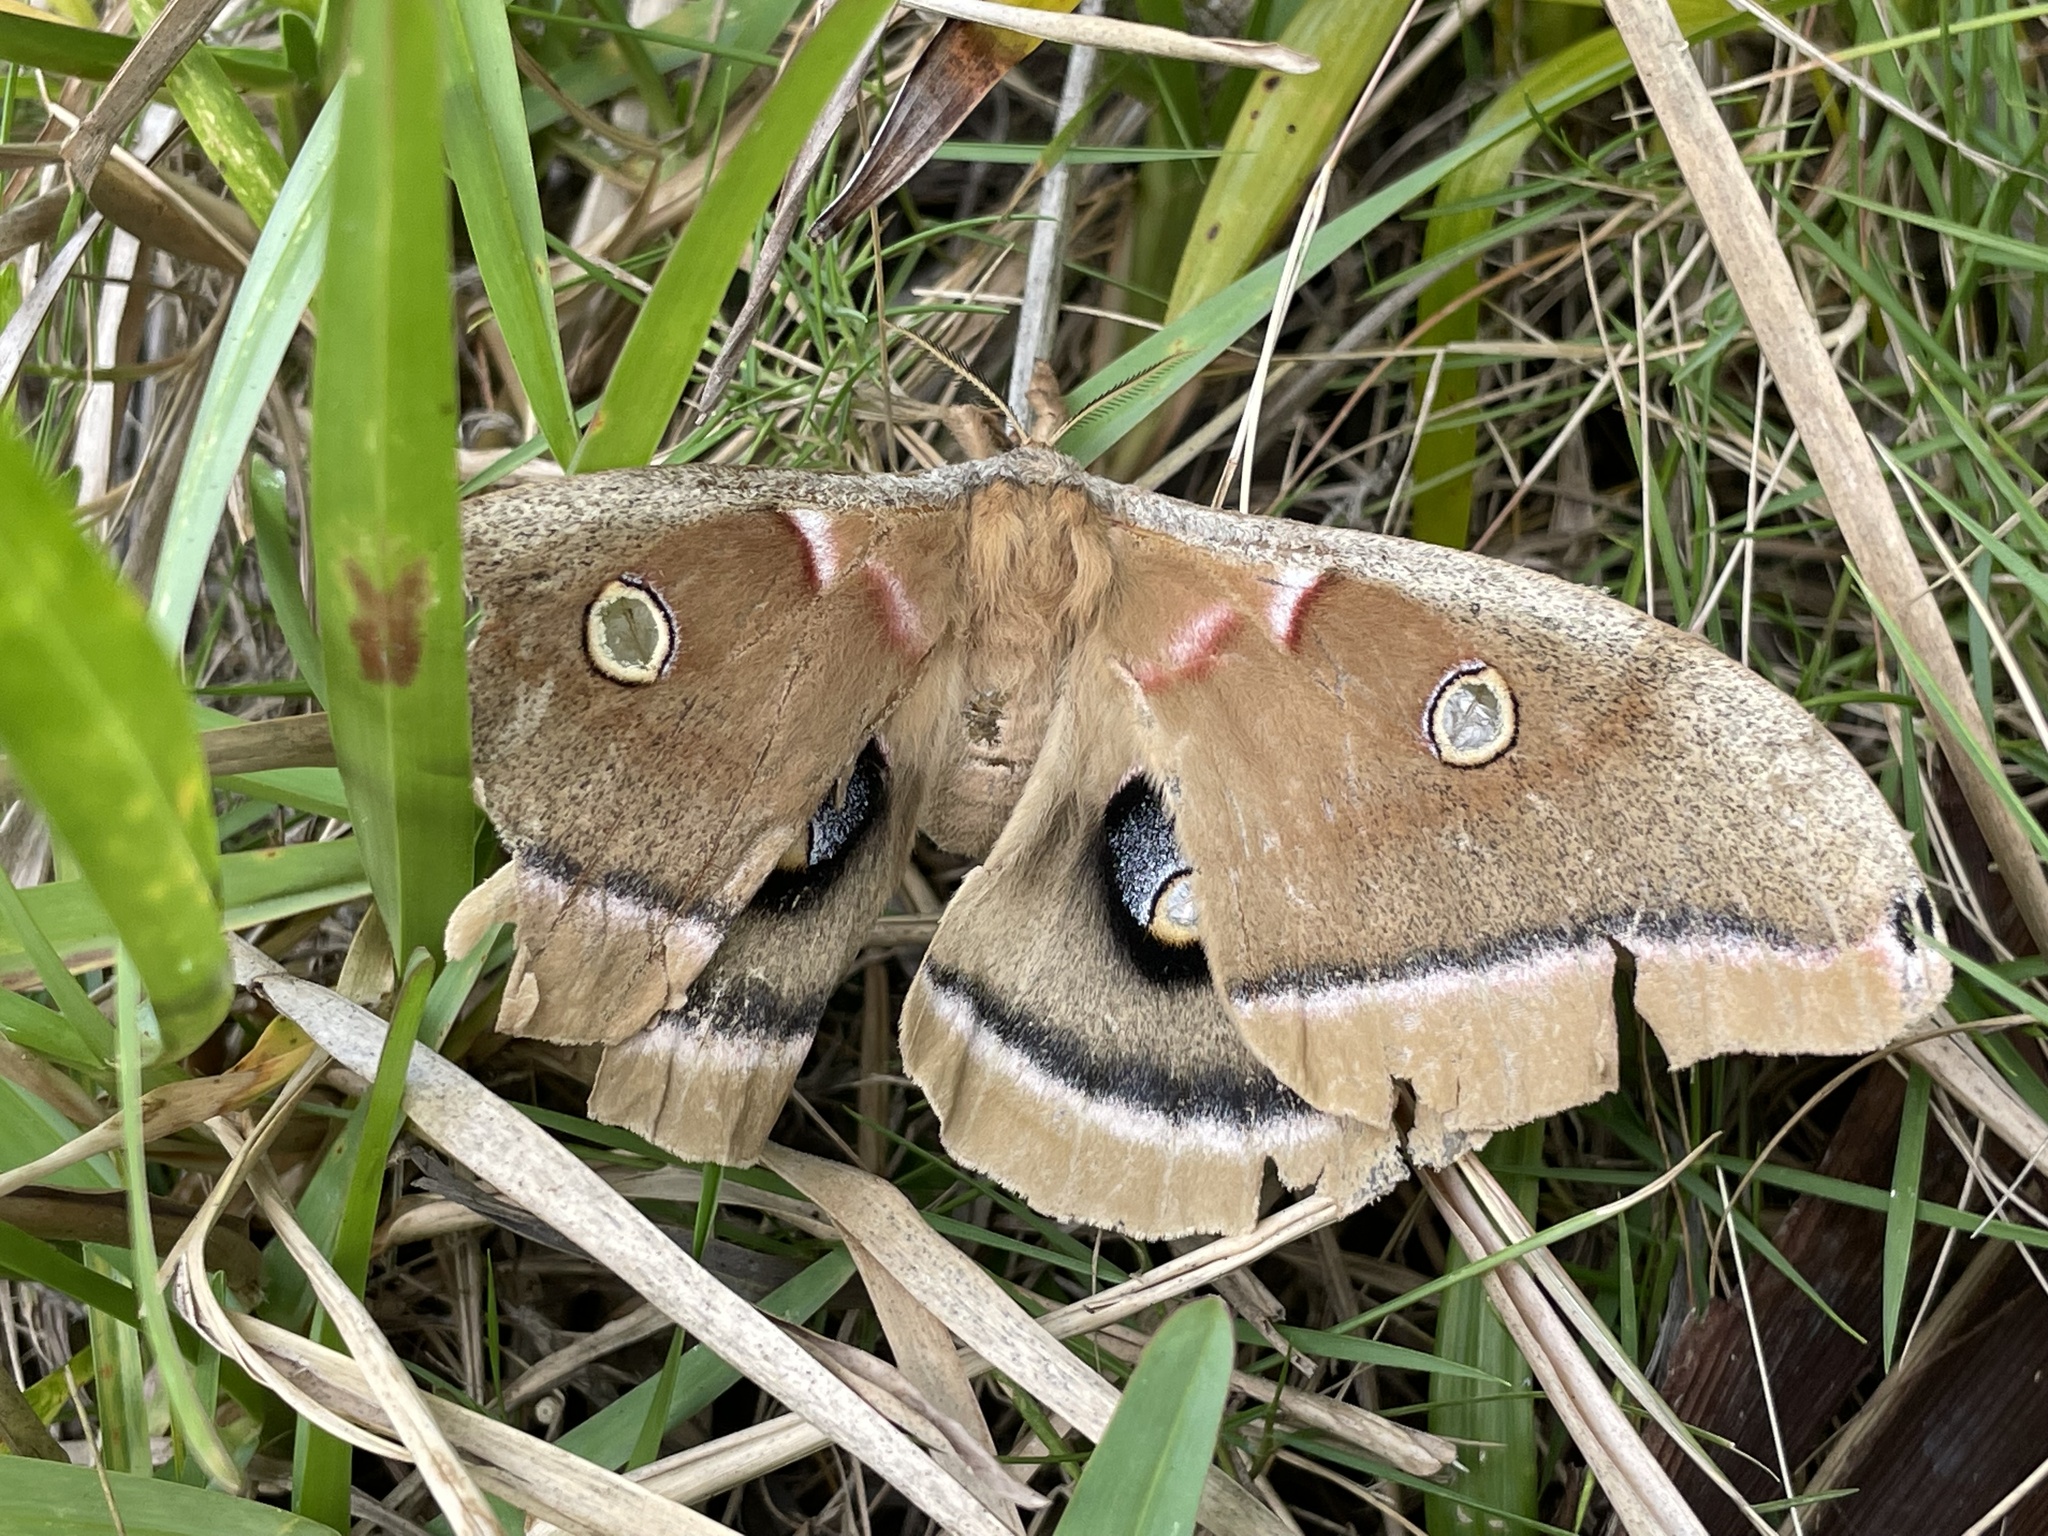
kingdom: Animalia
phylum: Arthropoda
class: Insecta
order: Lepidoptera
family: Saturniidae
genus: Antheraea
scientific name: Antheraea polyphemus
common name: Polyphemus moth
